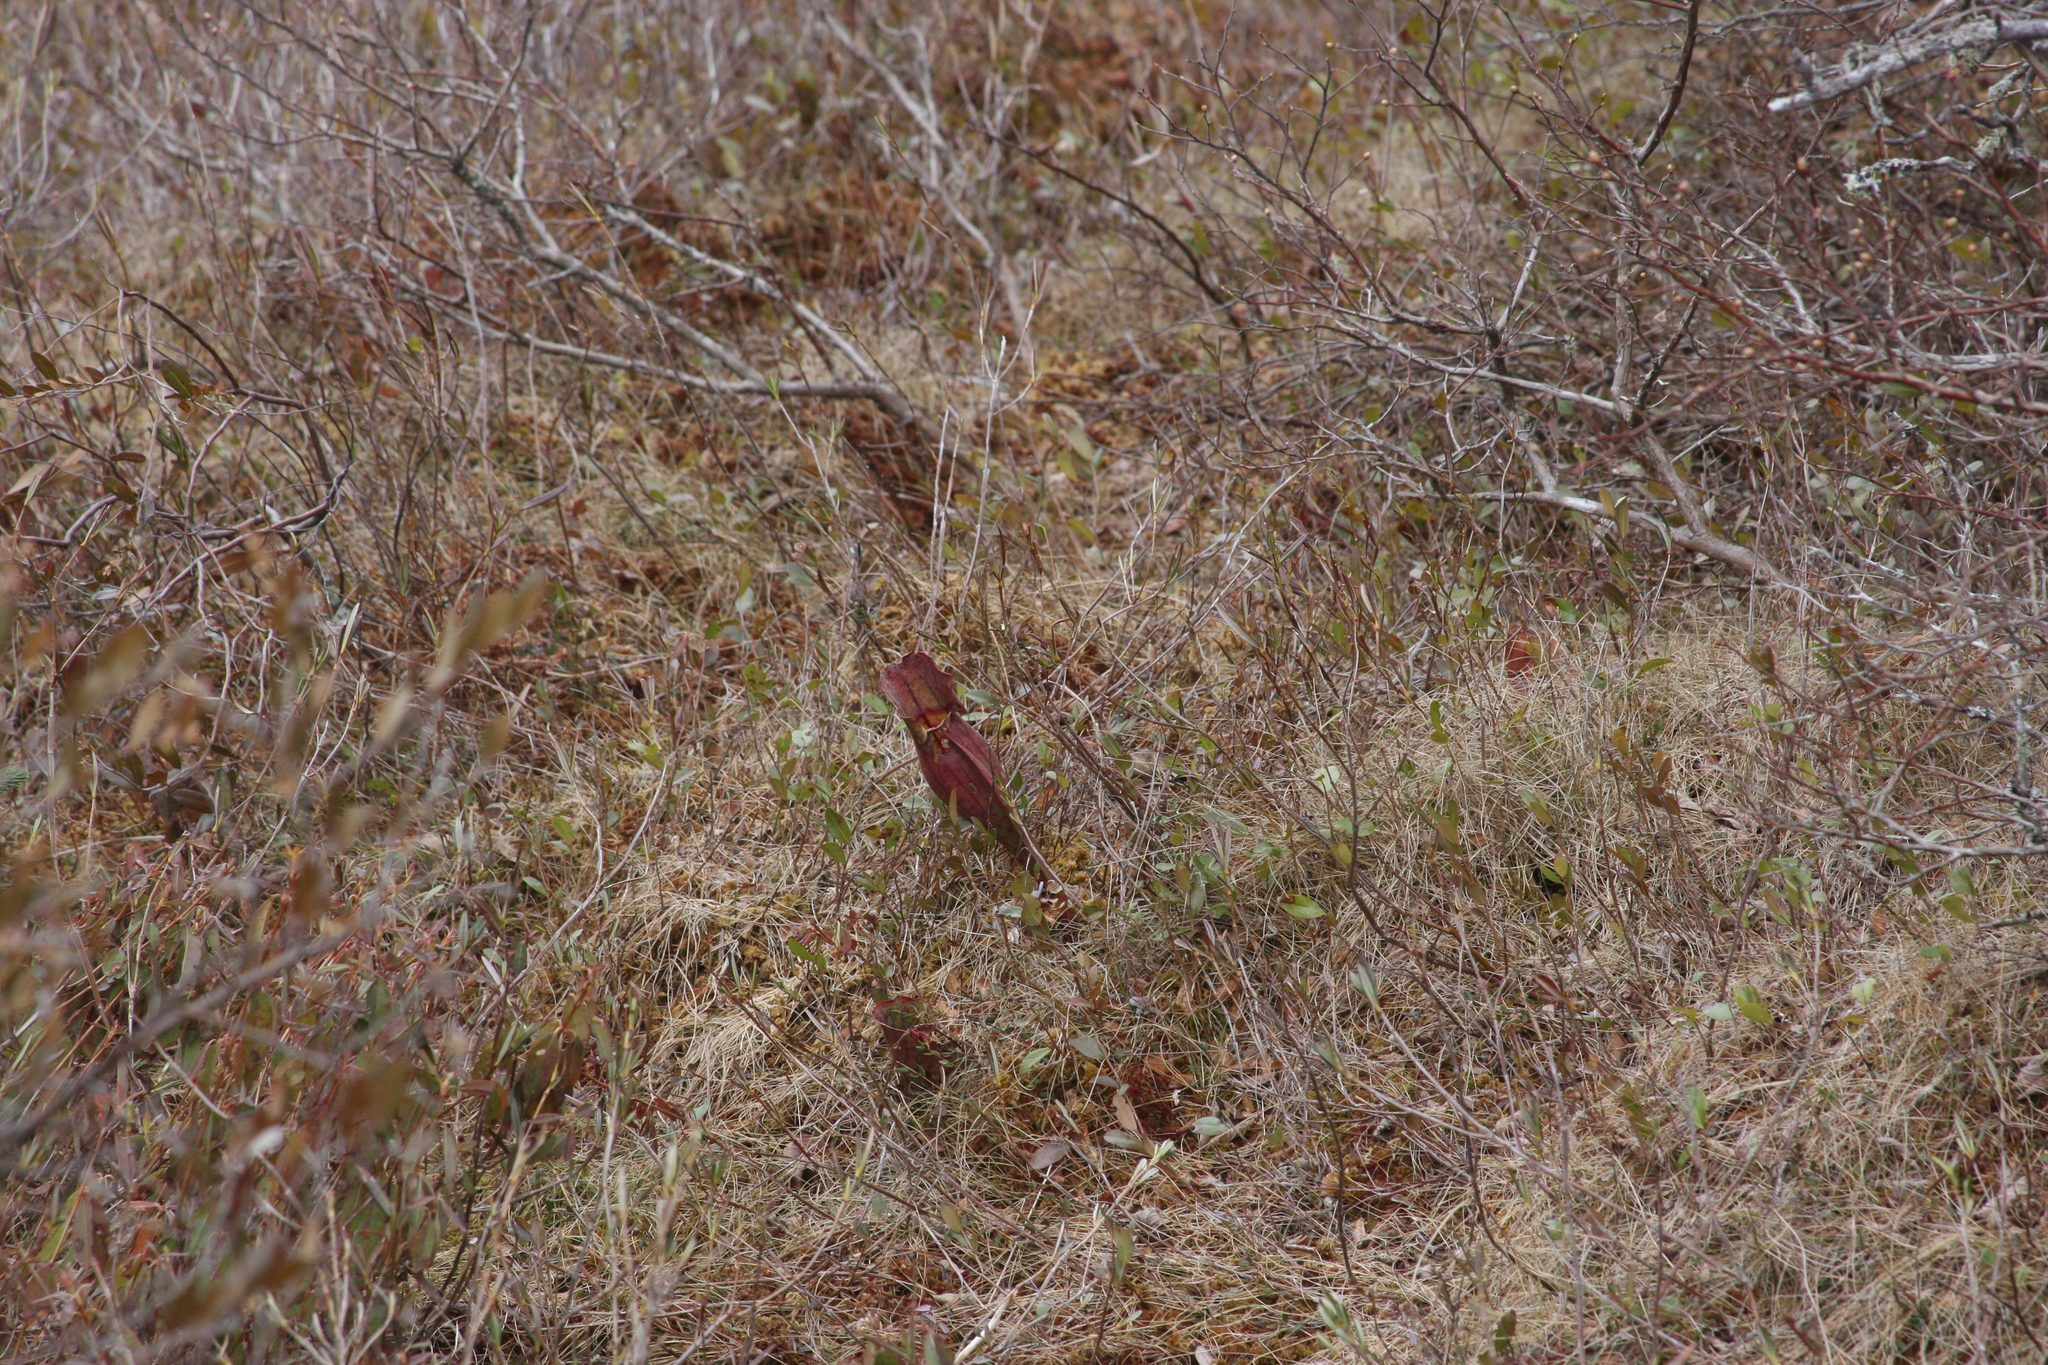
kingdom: Plantae
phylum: Tracheophyta
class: Magnoliopsida
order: Ericales
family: Sarraceniaceae
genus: Sarracenia
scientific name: Sarracenia purpurea
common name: Pitcherplant
